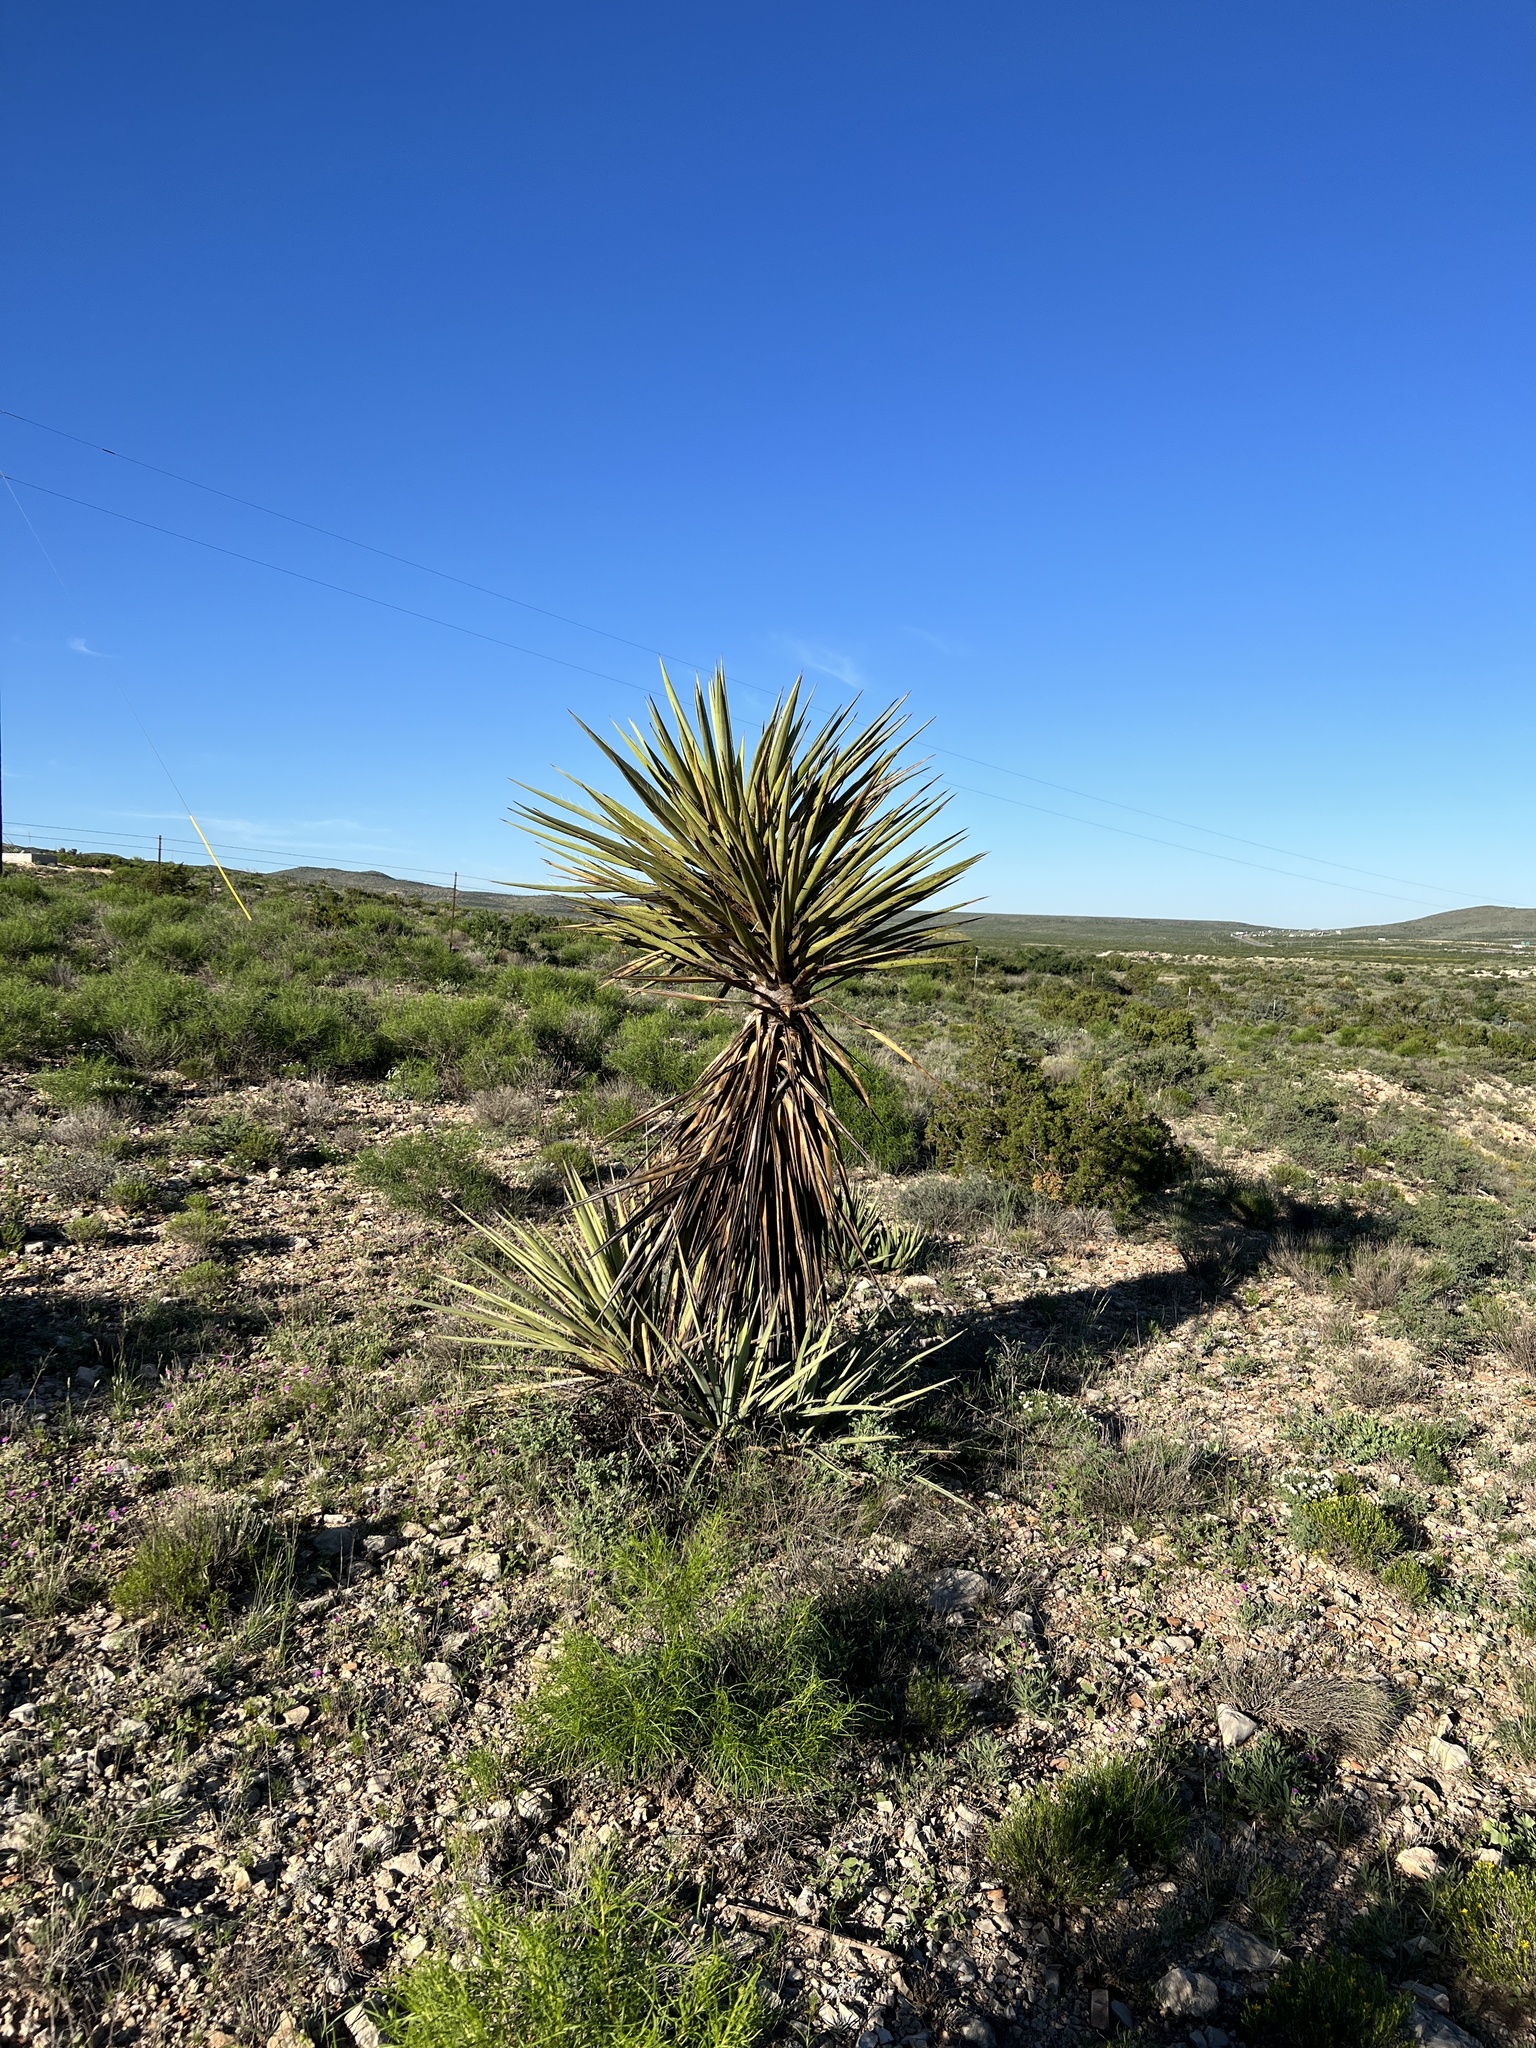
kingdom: Plantae
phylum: Tracheophyta
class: Liliopsida
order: Asparagales
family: Asparagaceae
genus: Yucca
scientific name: Yucca treculiana
